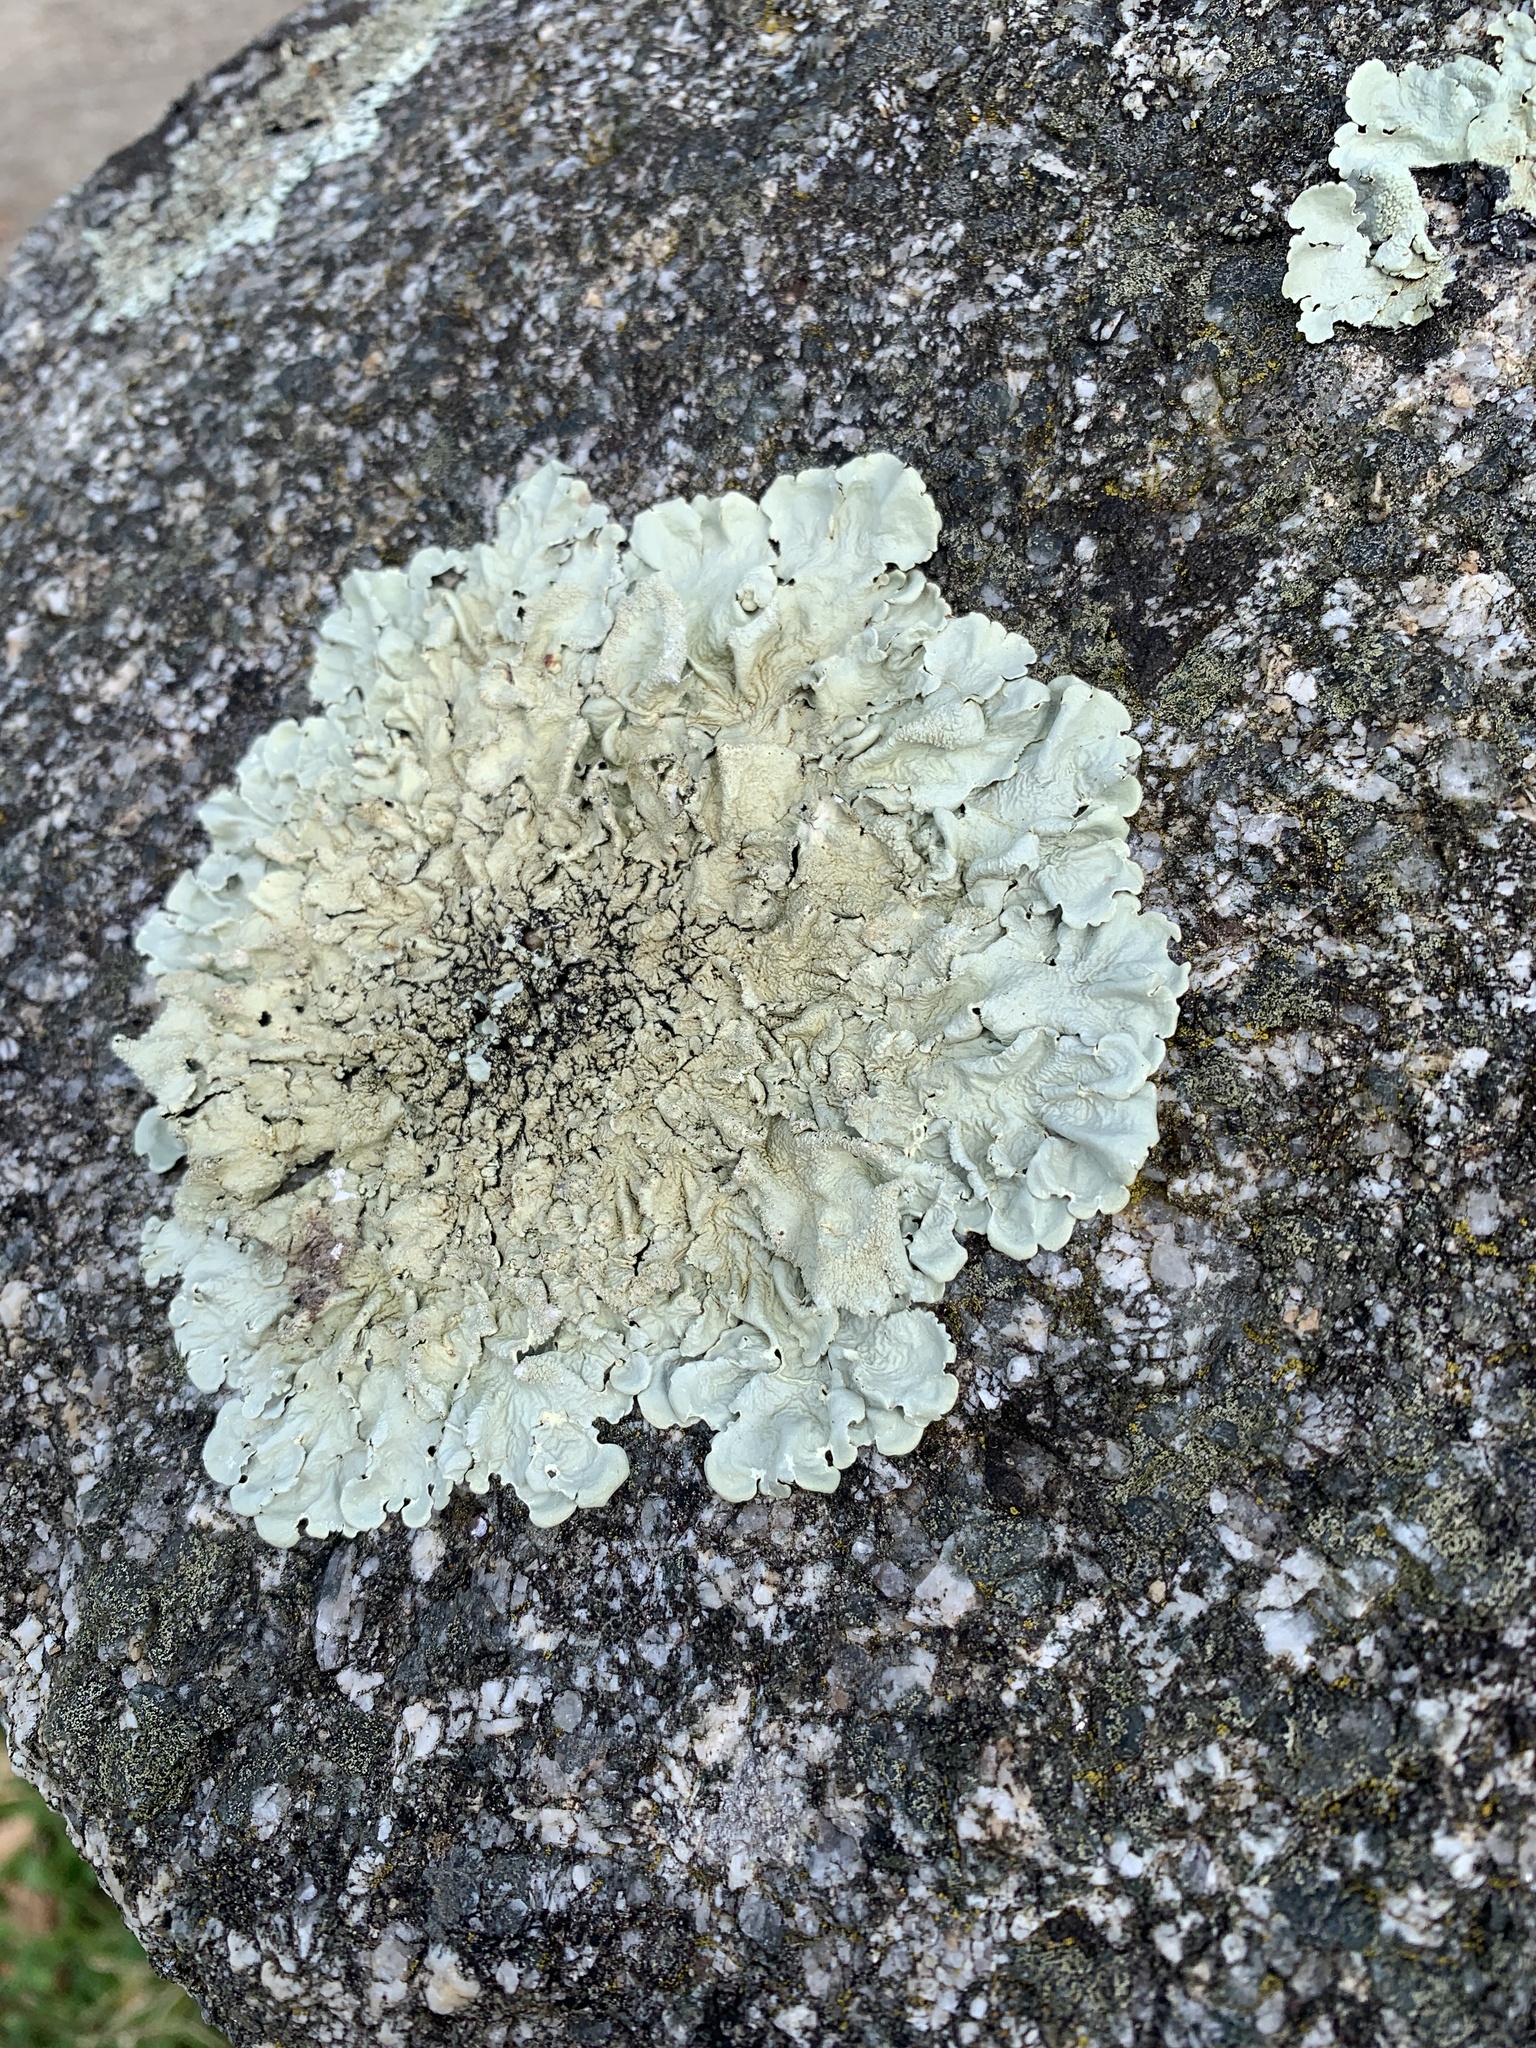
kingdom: Fungi
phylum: Ascomycota
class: Lecanoromycetes
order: Lecanorales
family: Parmeliaceae
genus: Flavoparmelia
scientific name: Flavoparmelia caperata
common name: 40-mile per hour lichen
